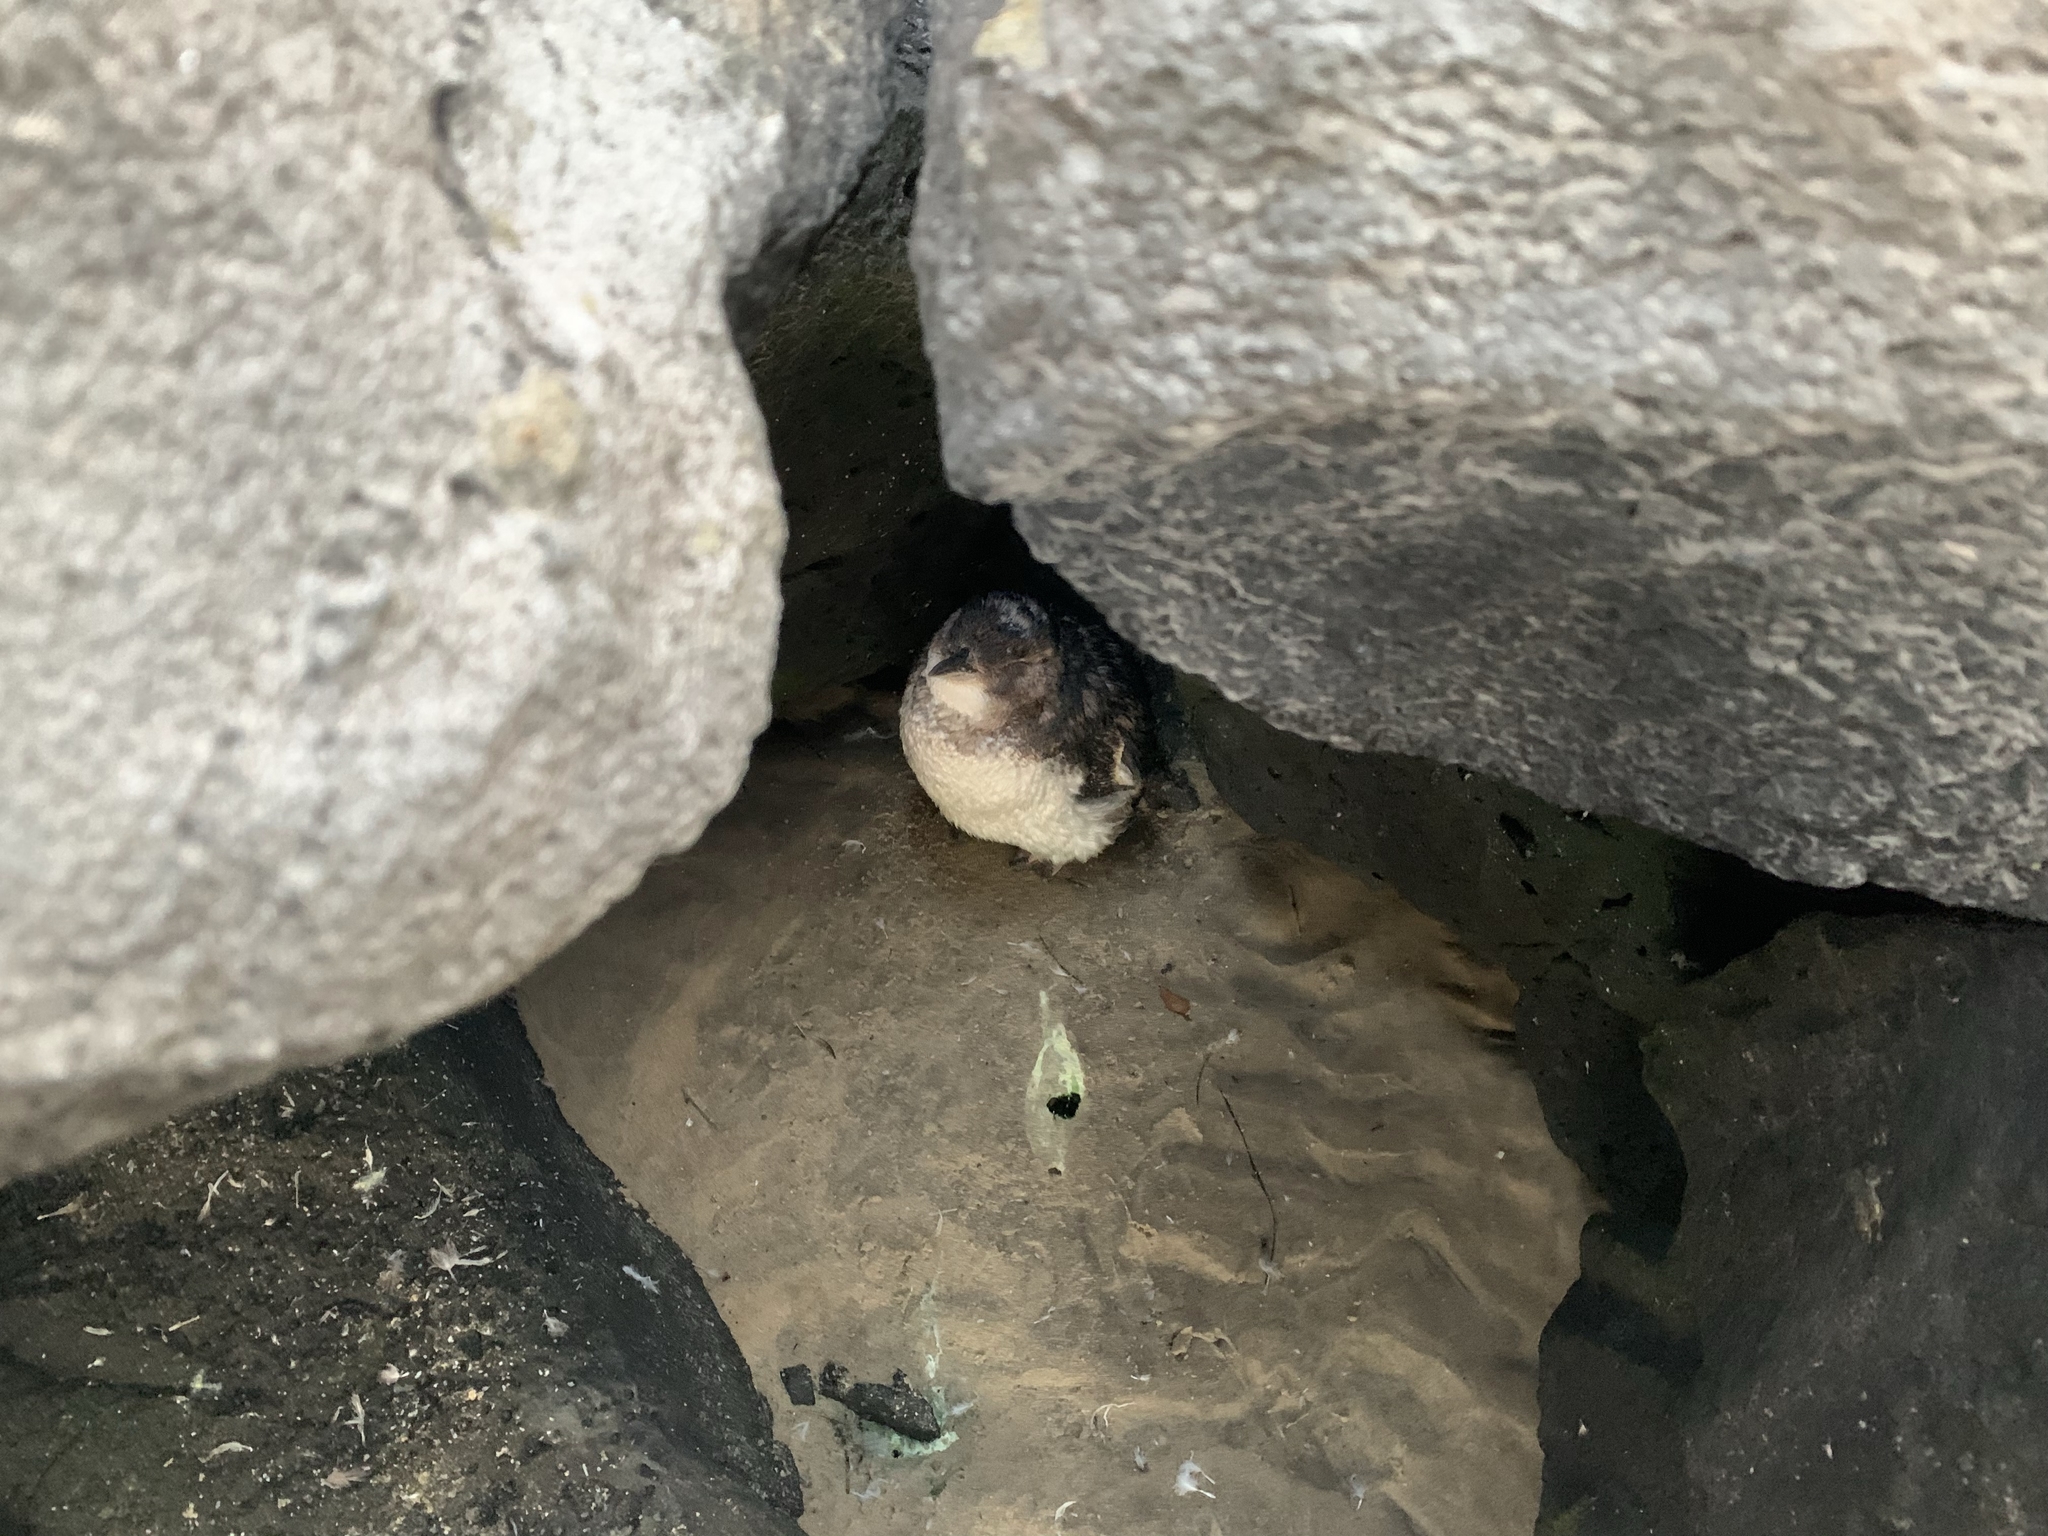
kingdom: Animalia
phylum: Chordata
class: Aves
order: Sphenisciformes
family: Spheniscidae
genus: Eudyptula
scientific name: Eudyptula minor
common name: Little penguin
